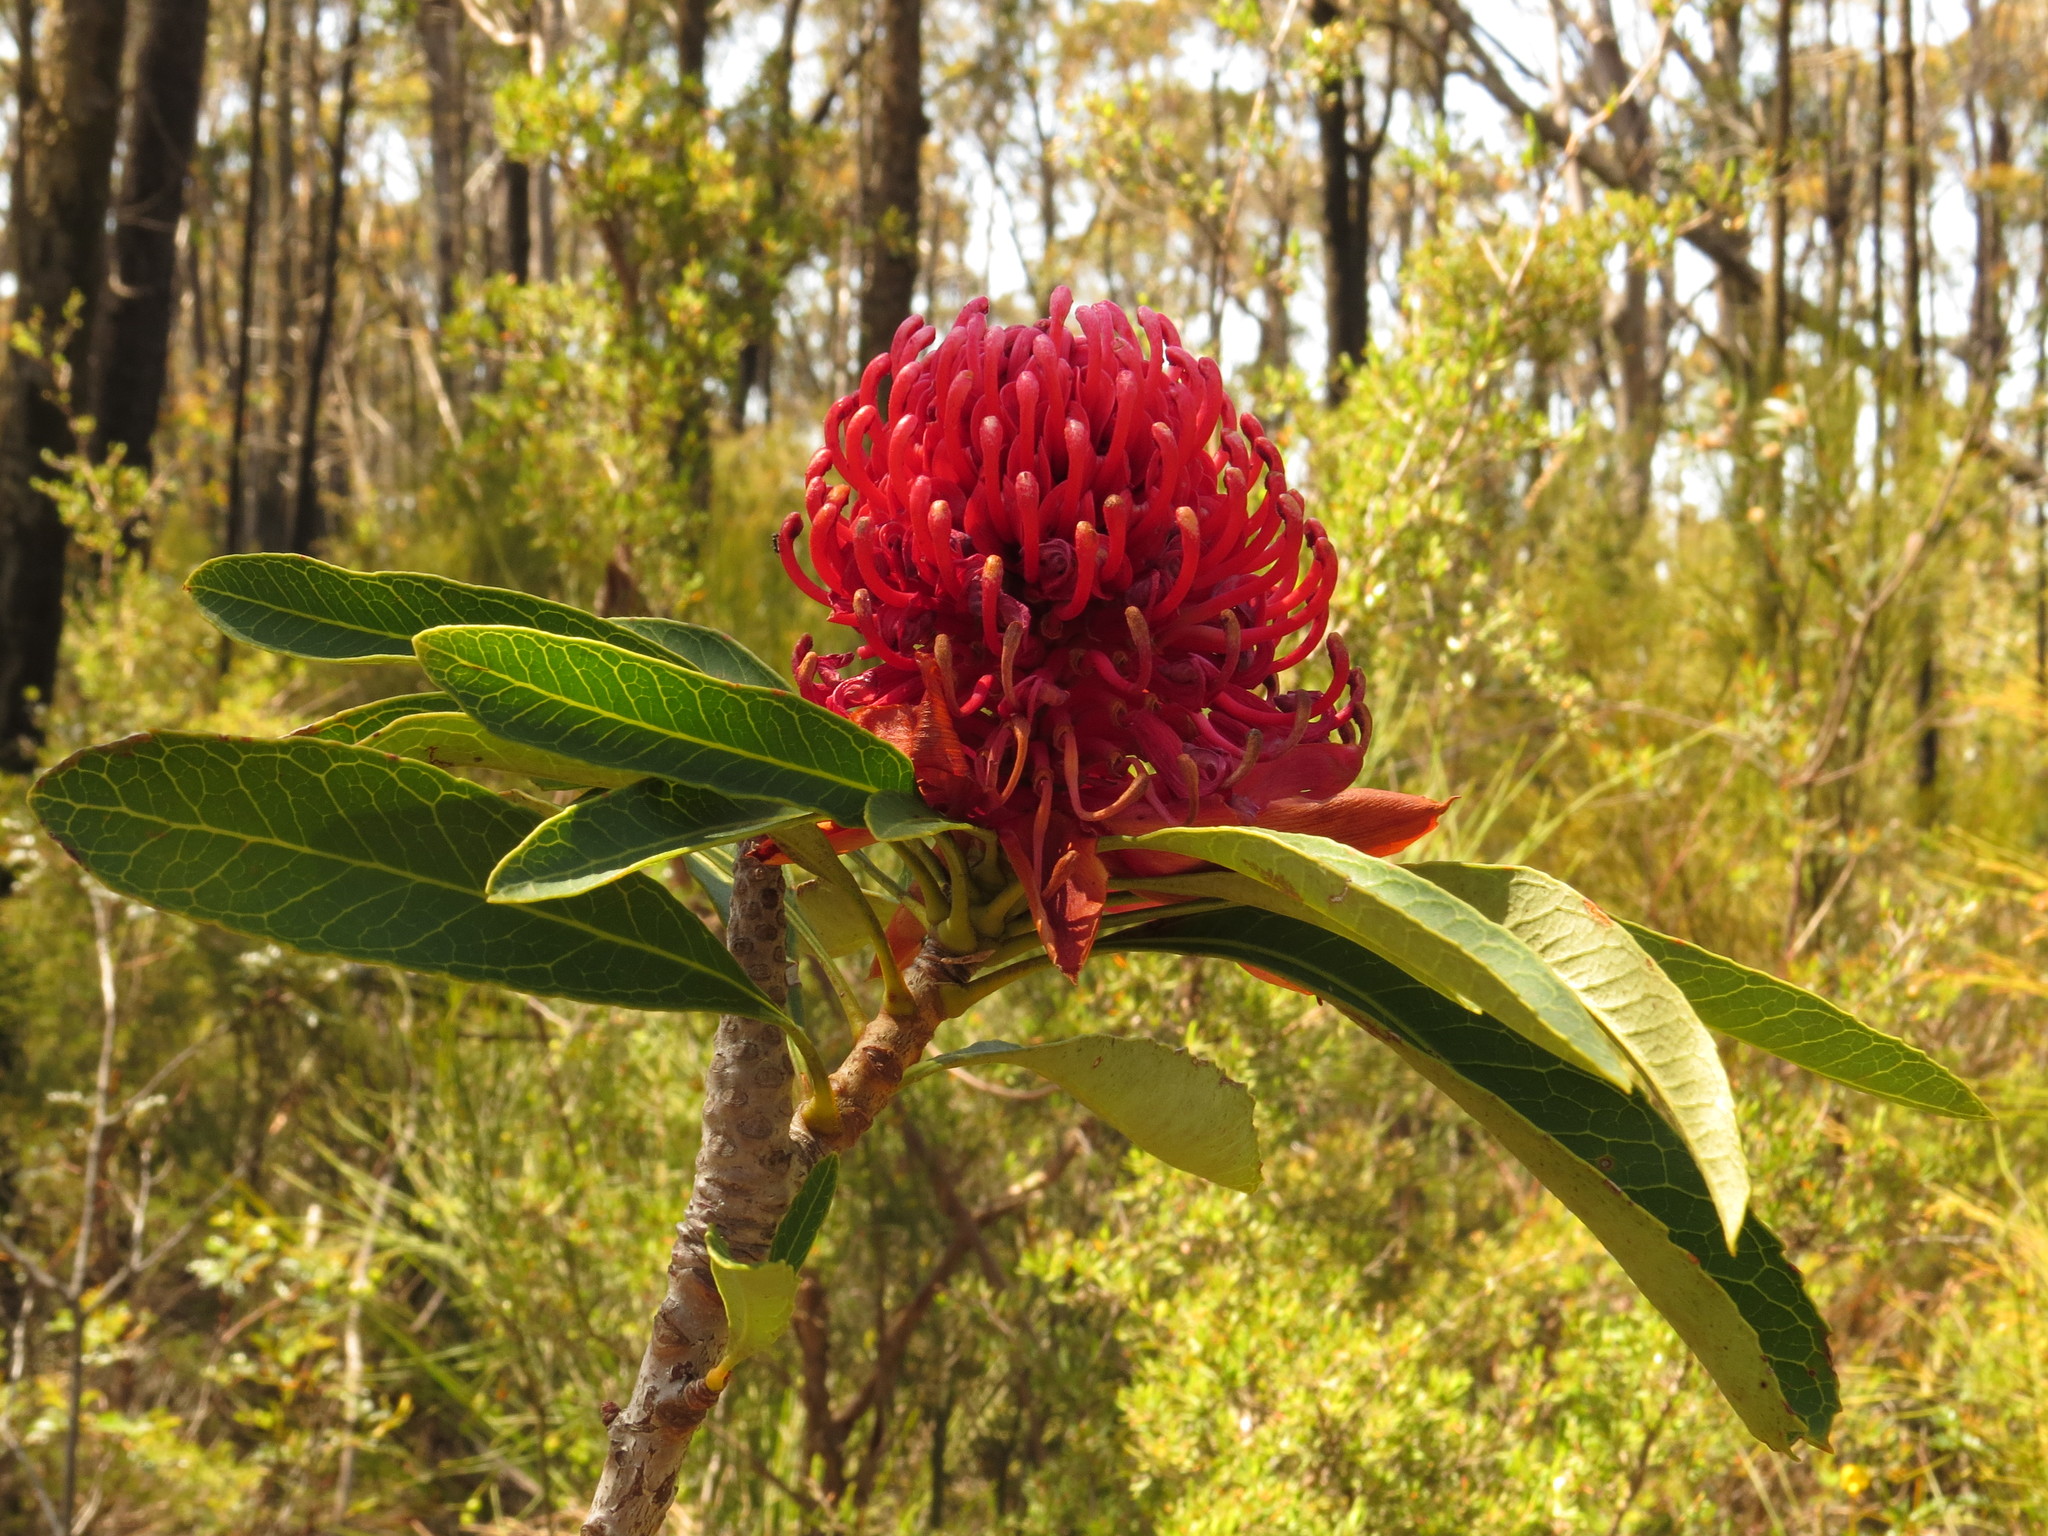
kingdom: Plantae
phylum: Tracheophyta
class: Magnoliopsida
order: Proteales
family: Proteaceae
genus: Telopea
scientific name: Telopea speciosissima
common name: New south wales waratah
